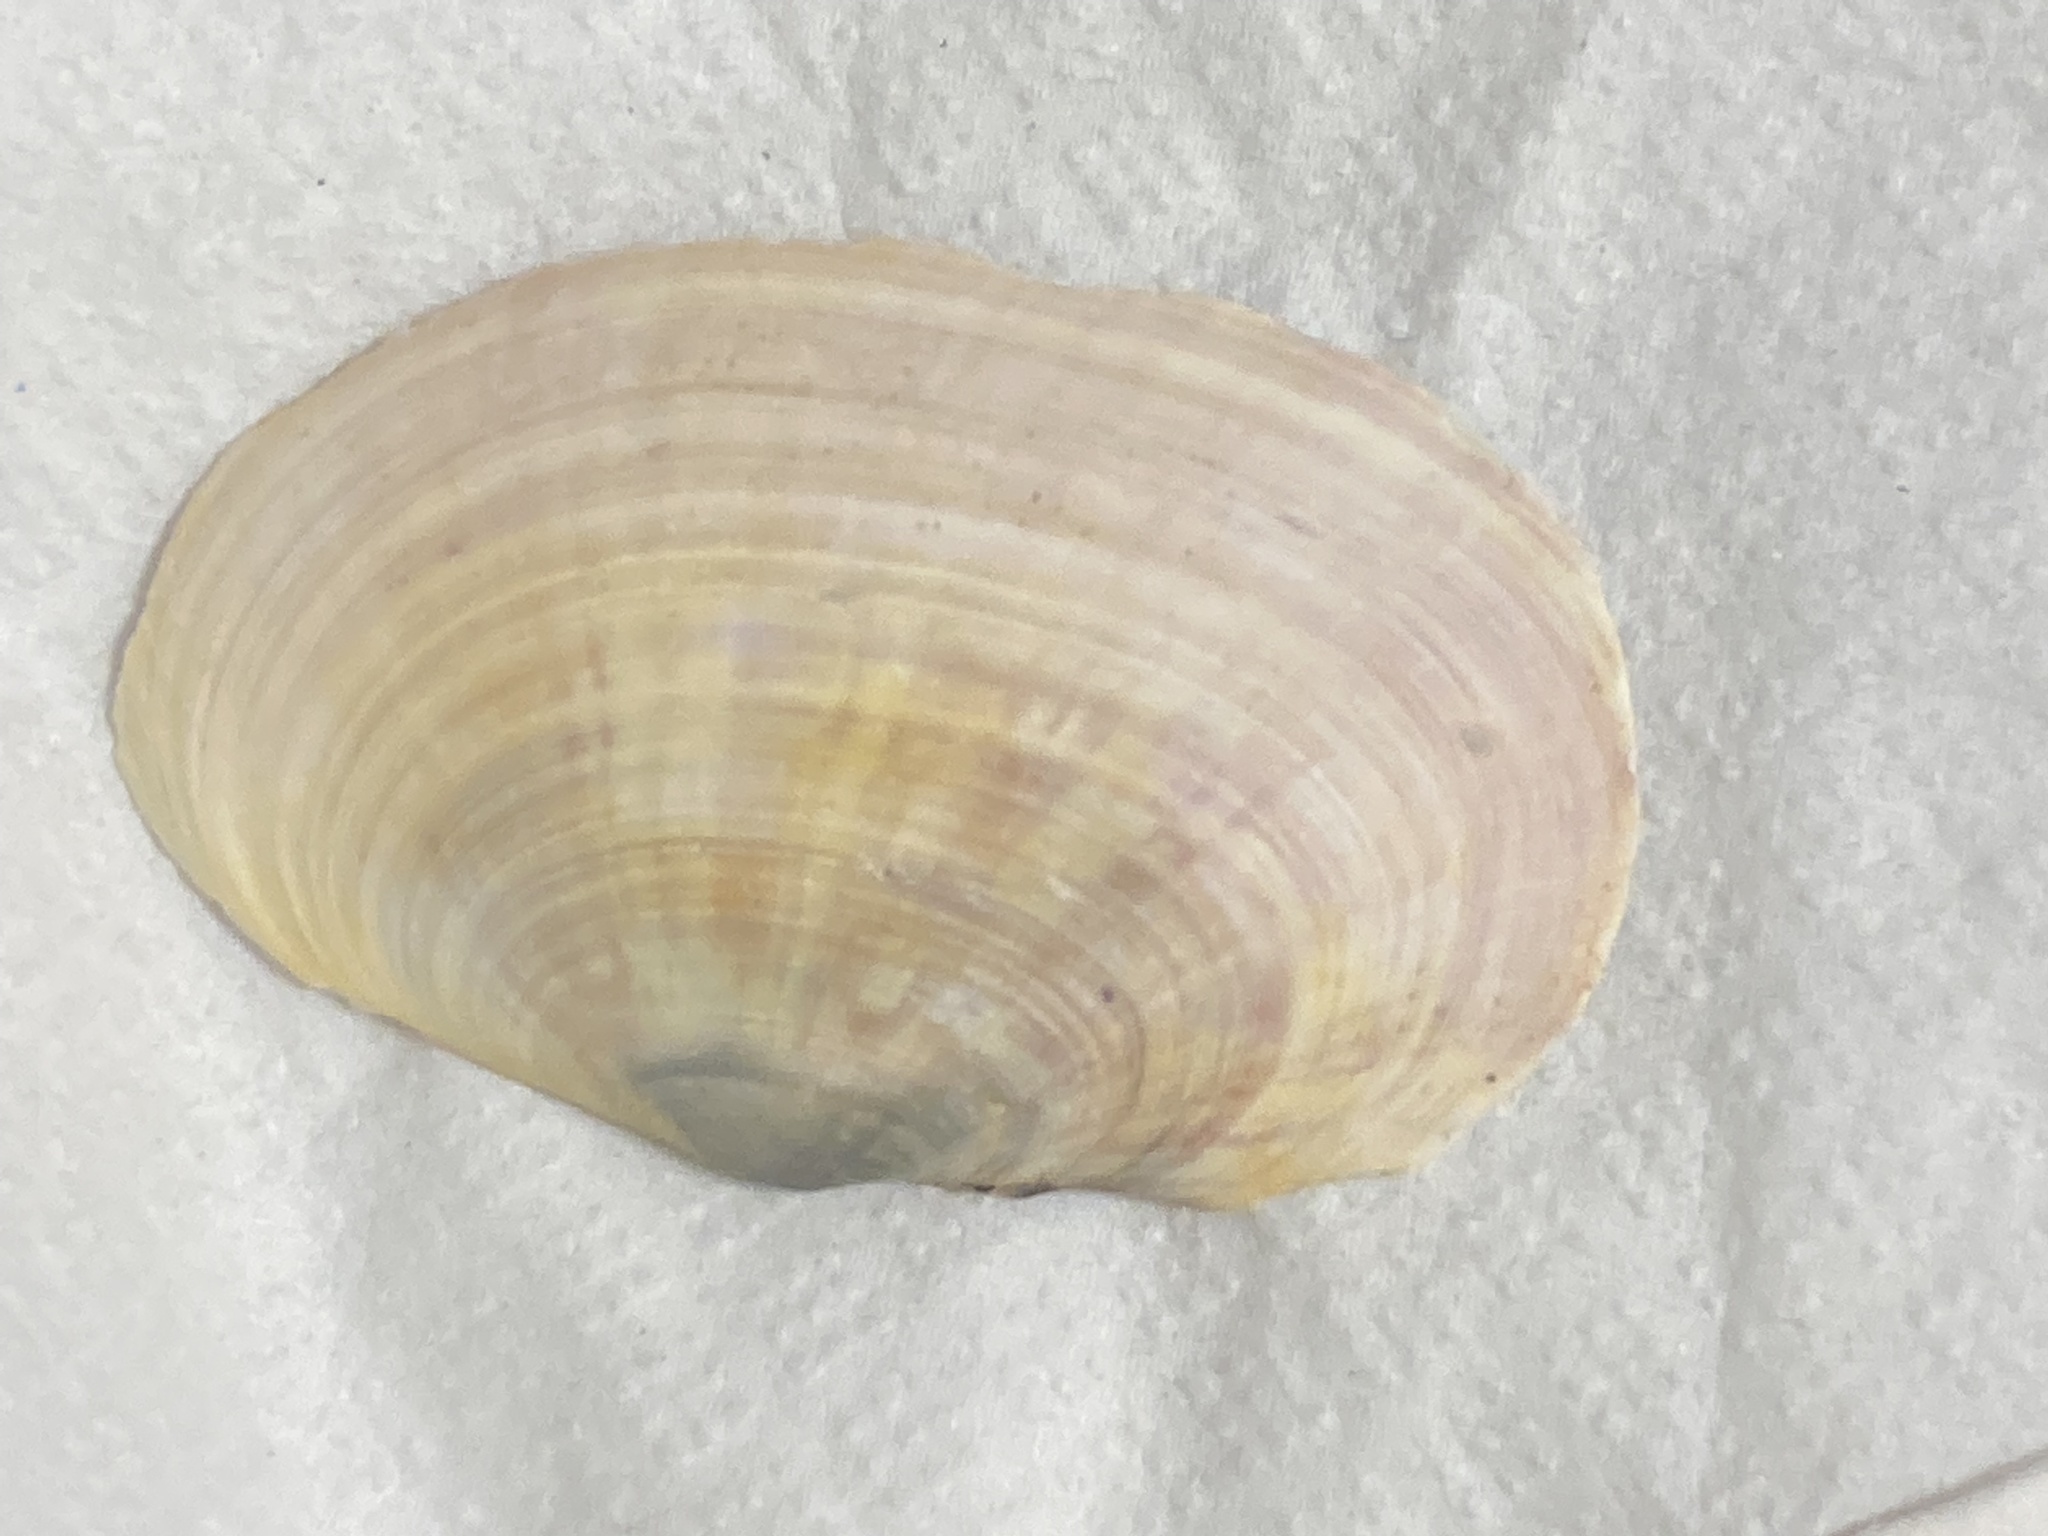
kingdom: Animalia
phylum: Mollusca
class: Bivalvia
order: Cardiida
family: Psammobiidae
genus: Gari
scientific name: Gari californica
